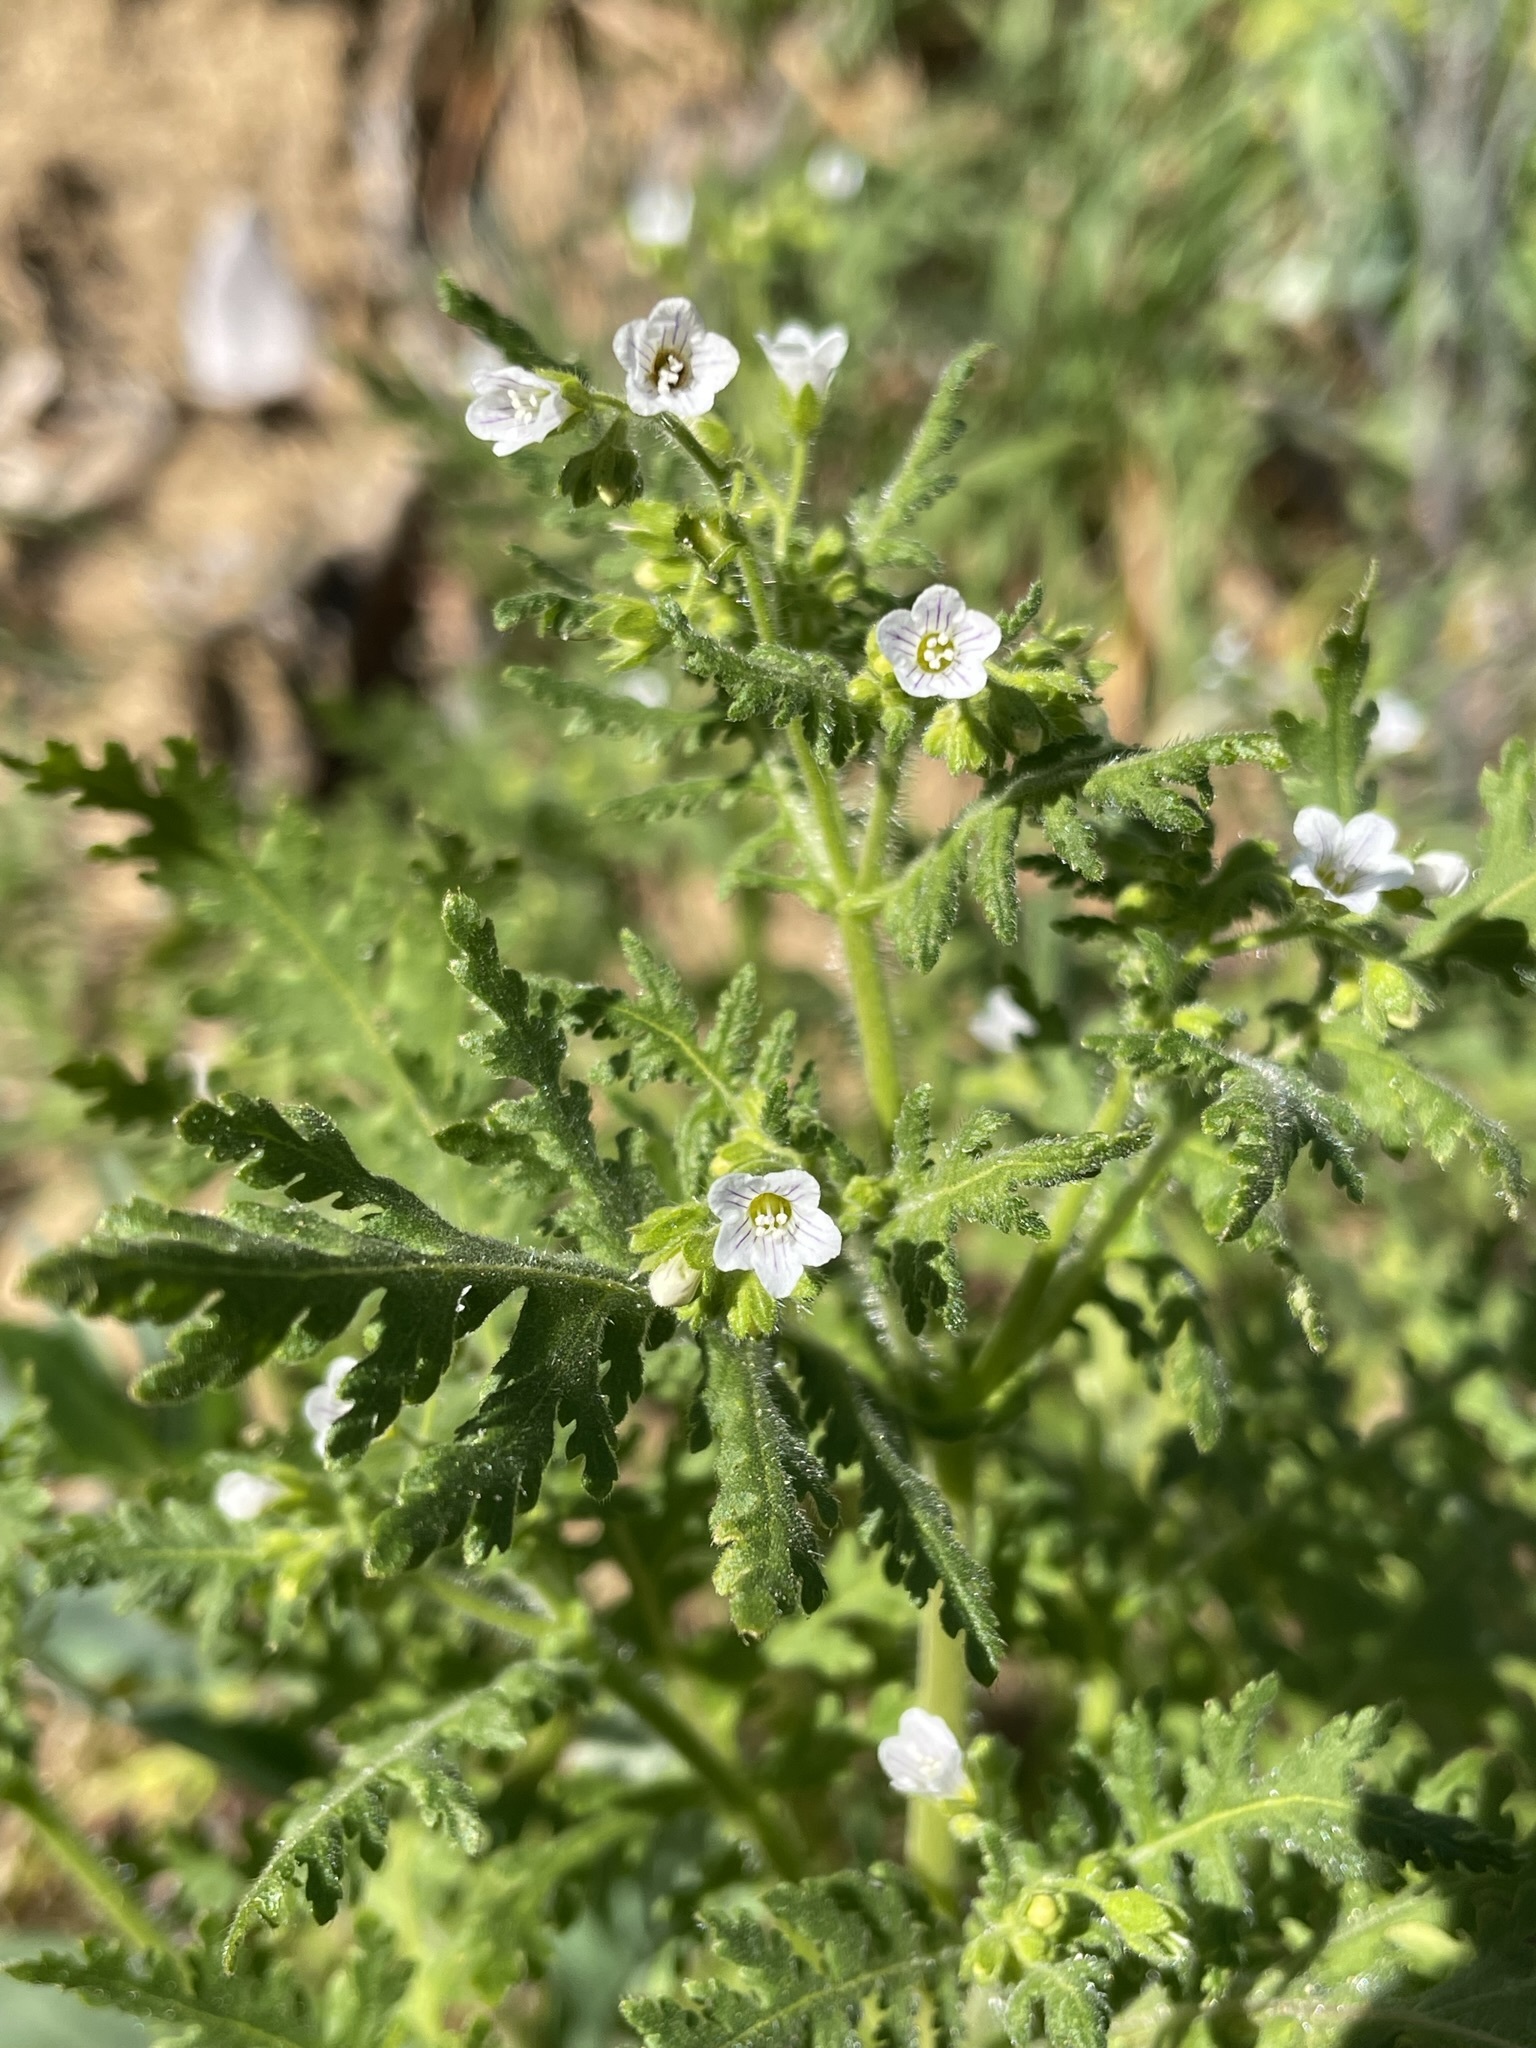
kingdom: Plantae
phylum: Tracheophyta
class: Magnoliopsida
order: Boraginales
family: Hydrophyllaceae
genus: Eucrypta
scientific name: Eucrypta chrysanthemifolia
